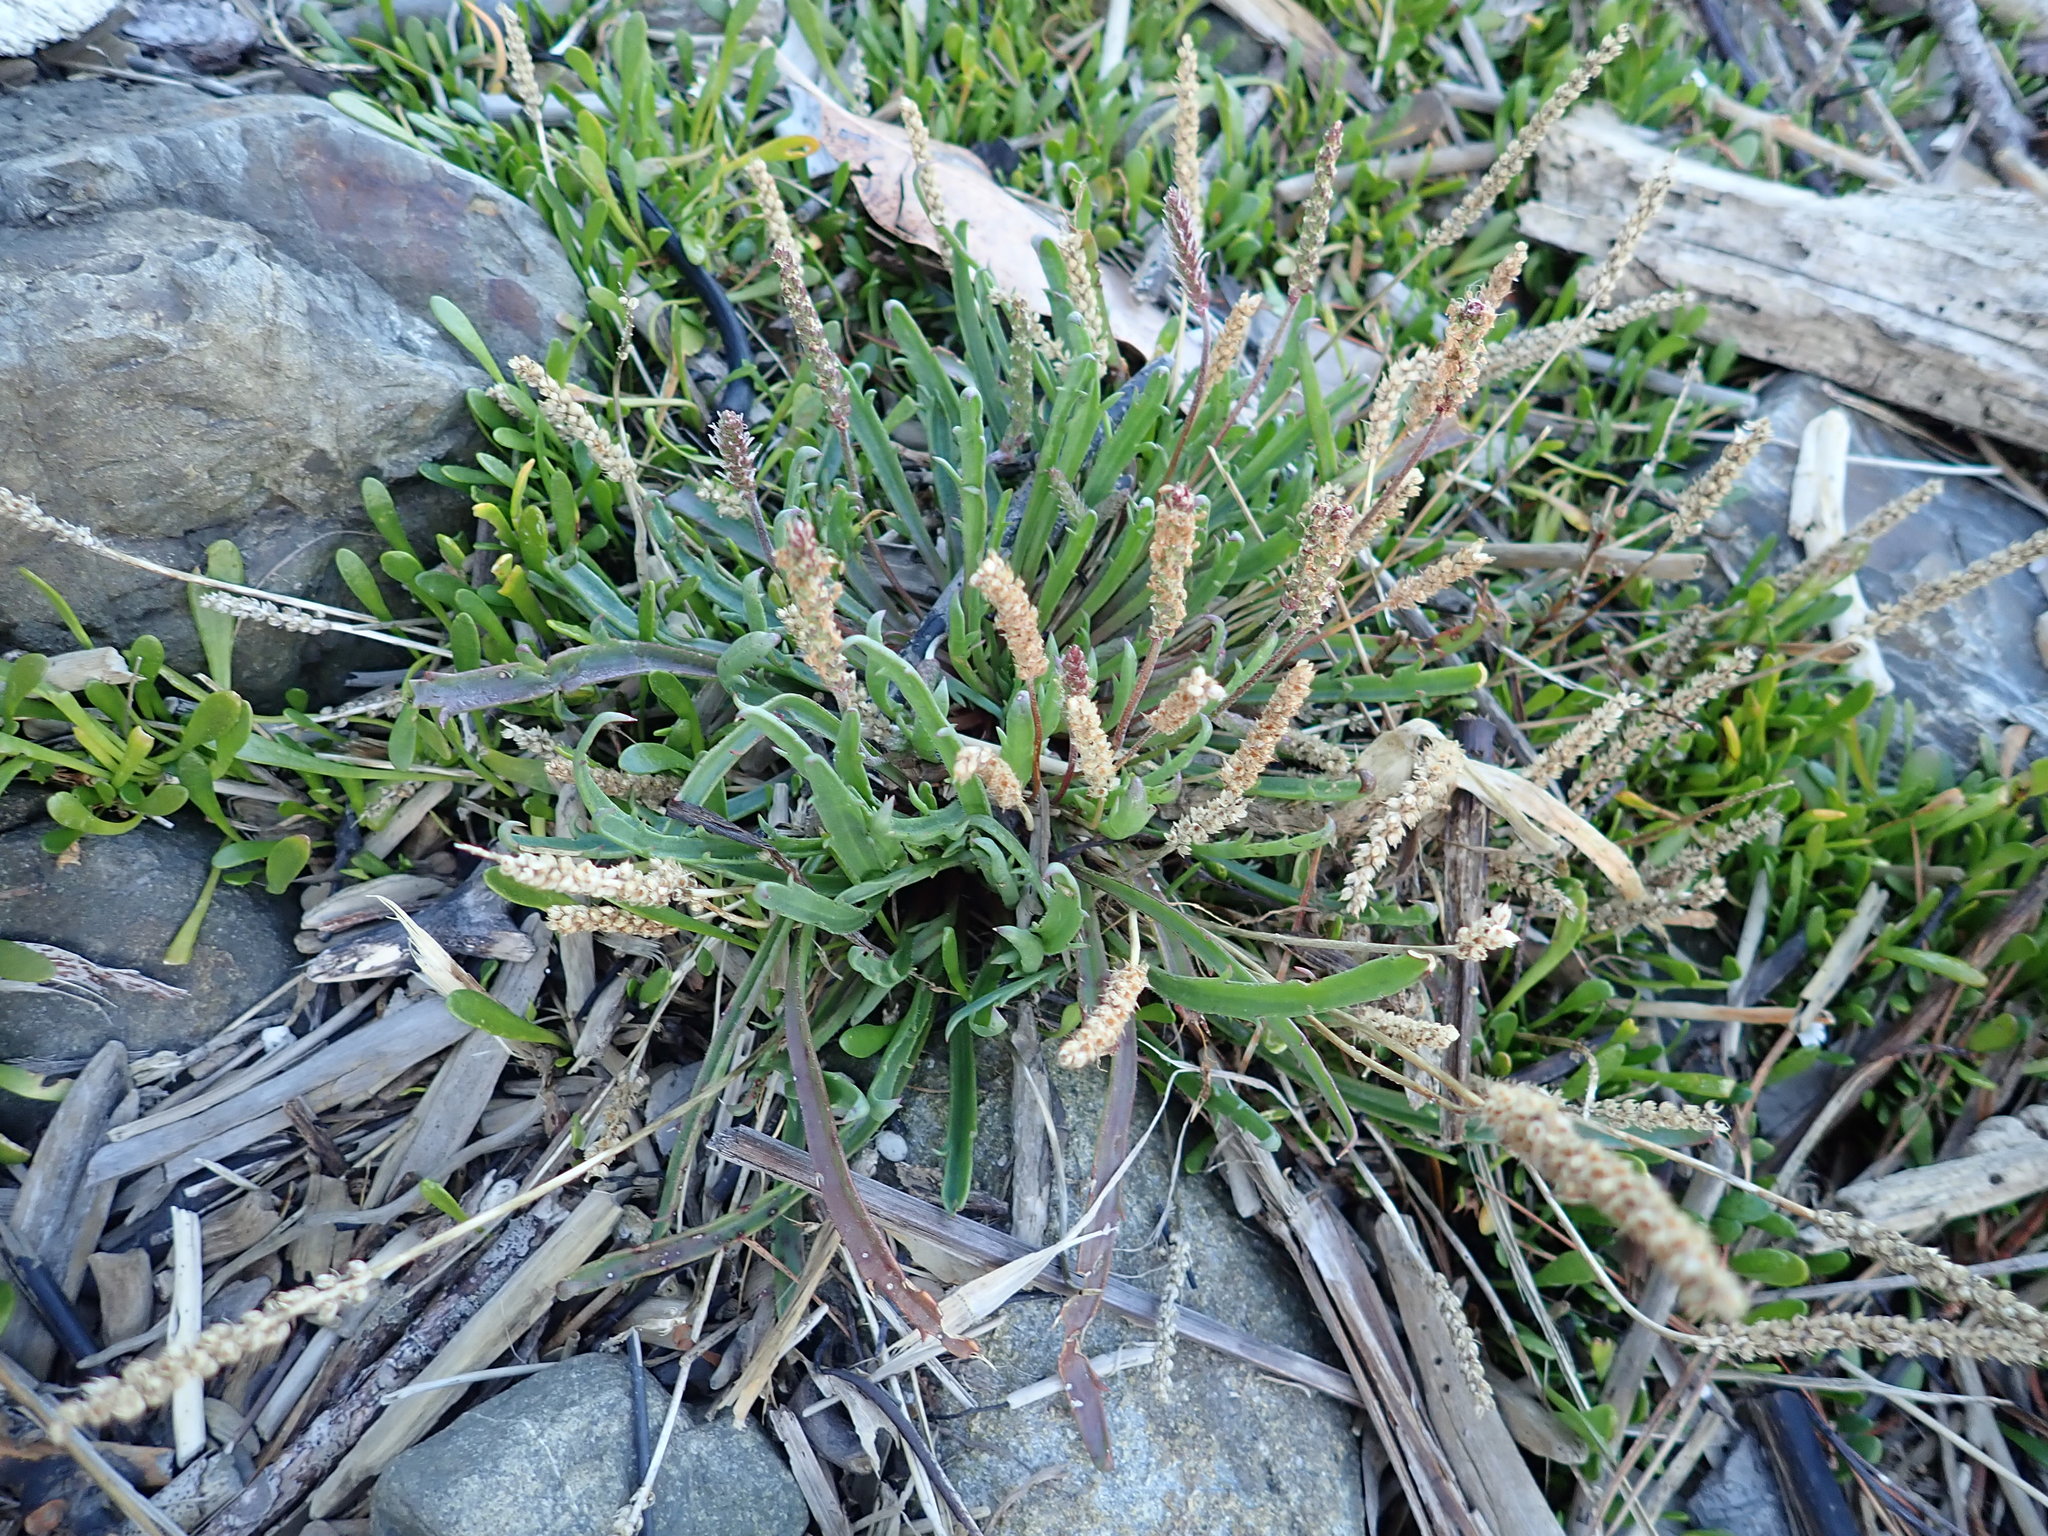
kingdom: Plantae
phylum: Tracheophyta
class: Magnoliopsida
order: Lamiales
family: Plantaginaceae
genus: Plantago
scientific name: Plantago coronopus
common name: Buck's-horn plantain
